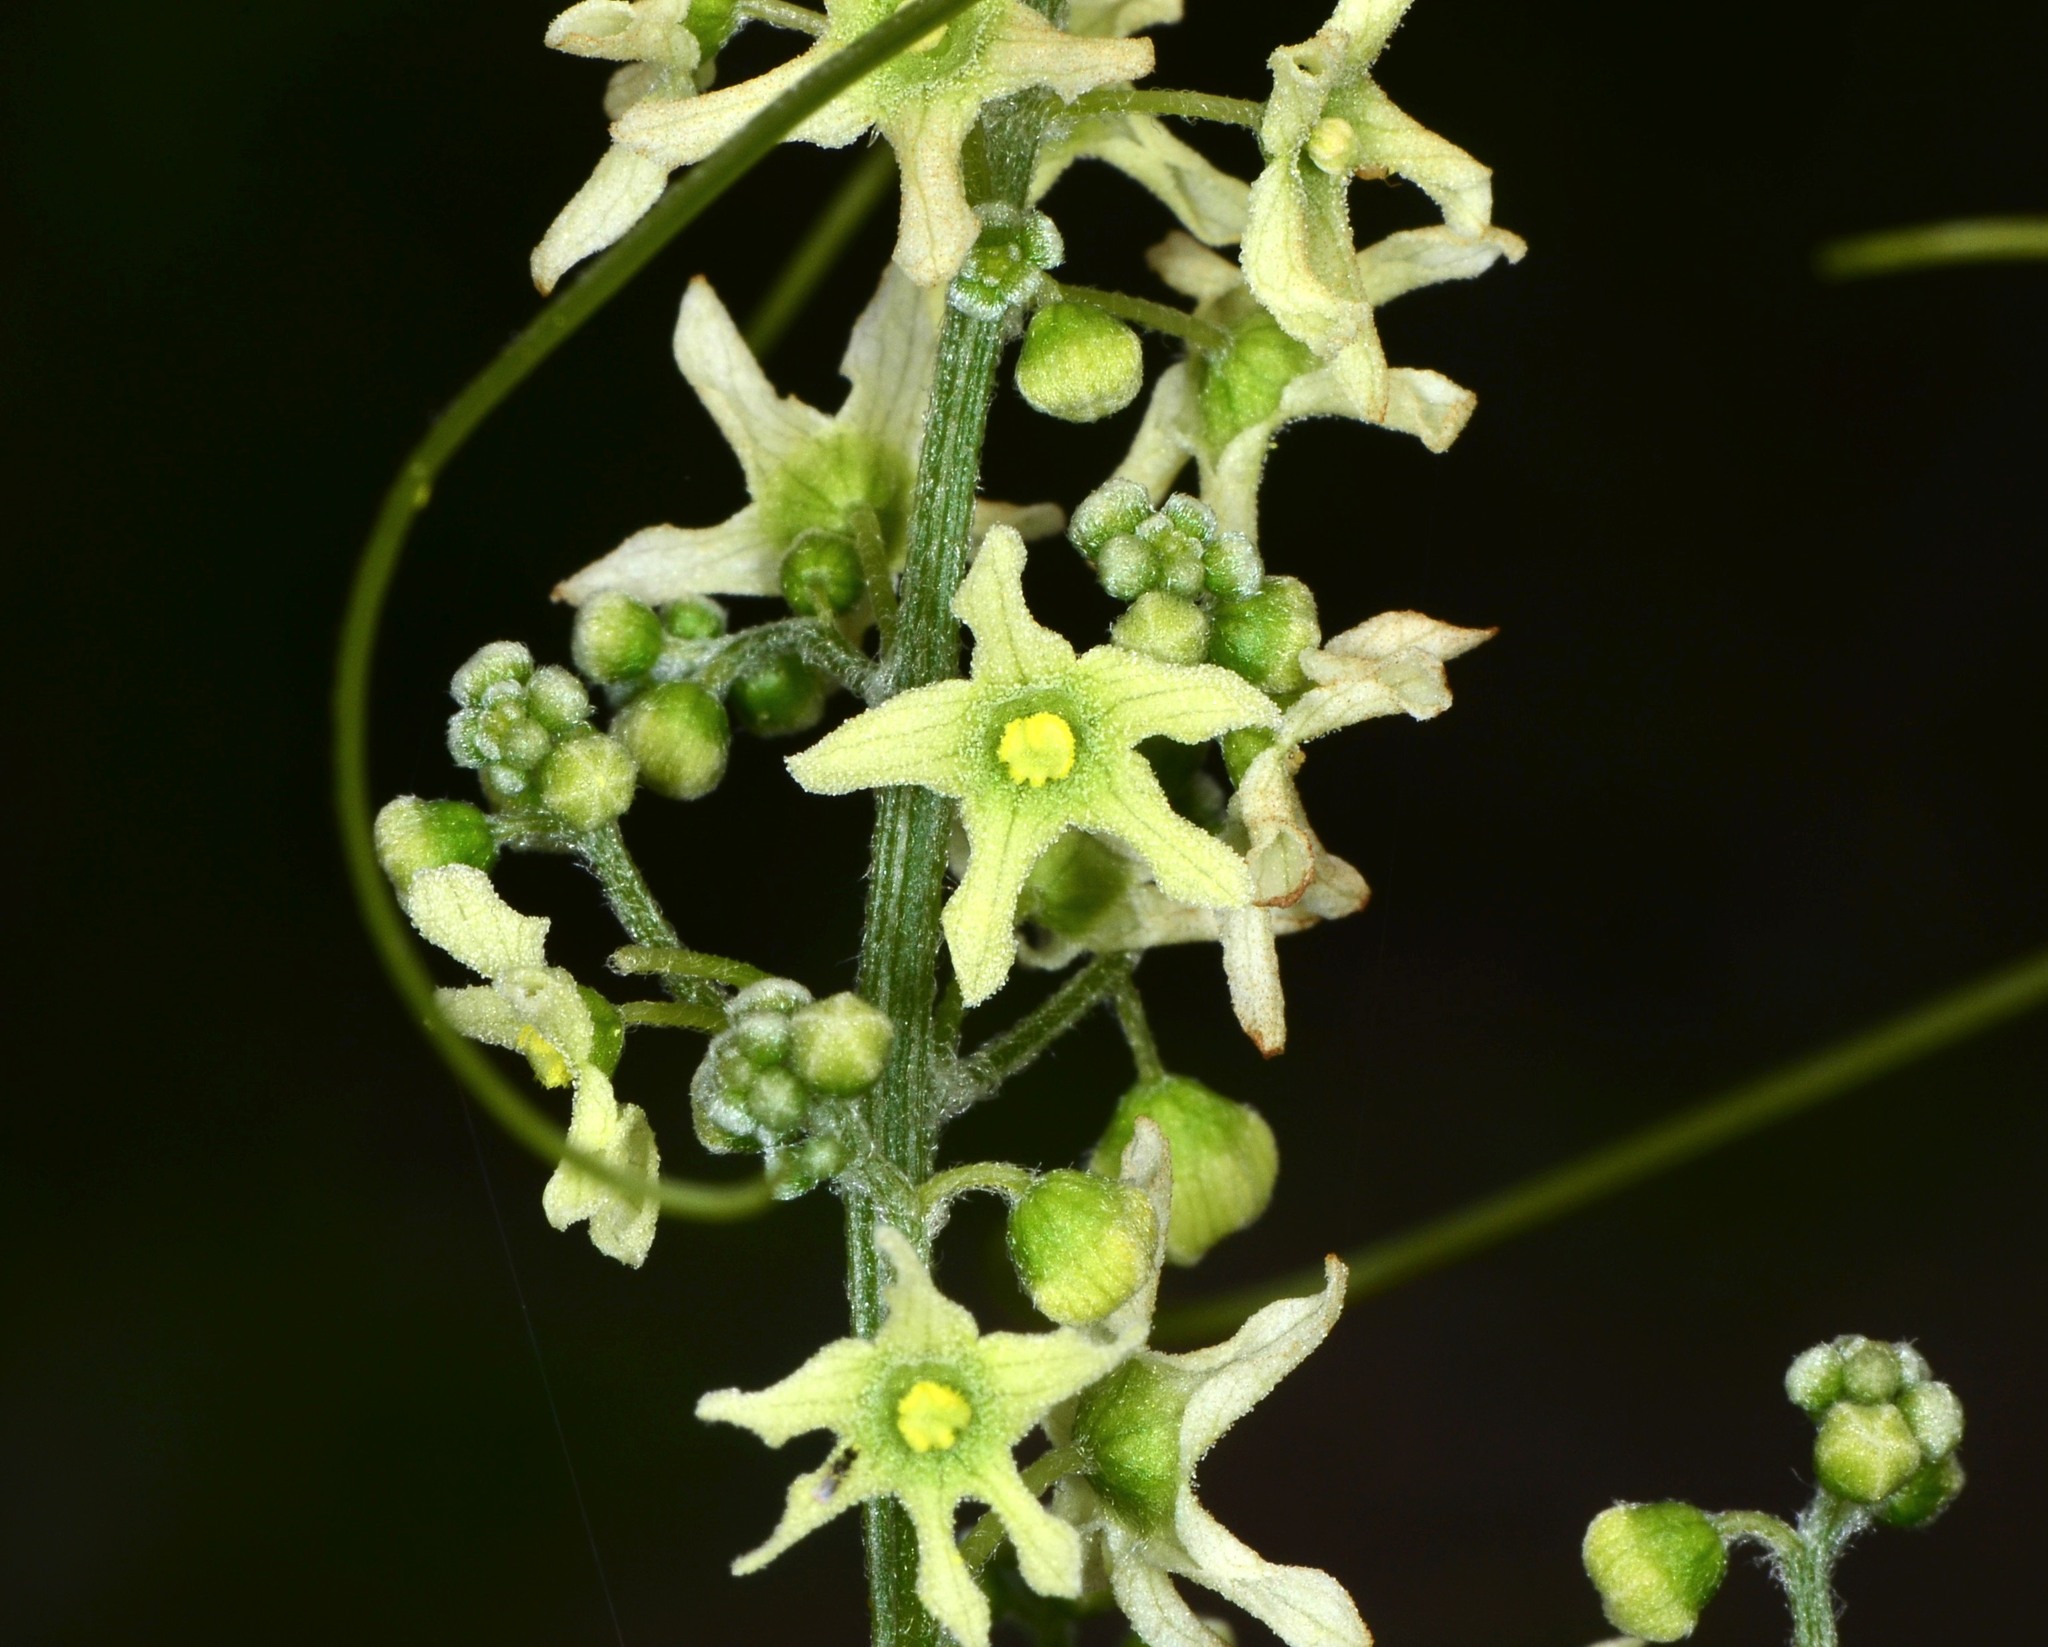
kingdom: Plantae
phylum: Tracheophyta
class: Magnoliopsida
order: Cucurbitales
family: Cucurbitaceae
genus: Marah
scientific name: Marah fabacea
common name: California manroot
